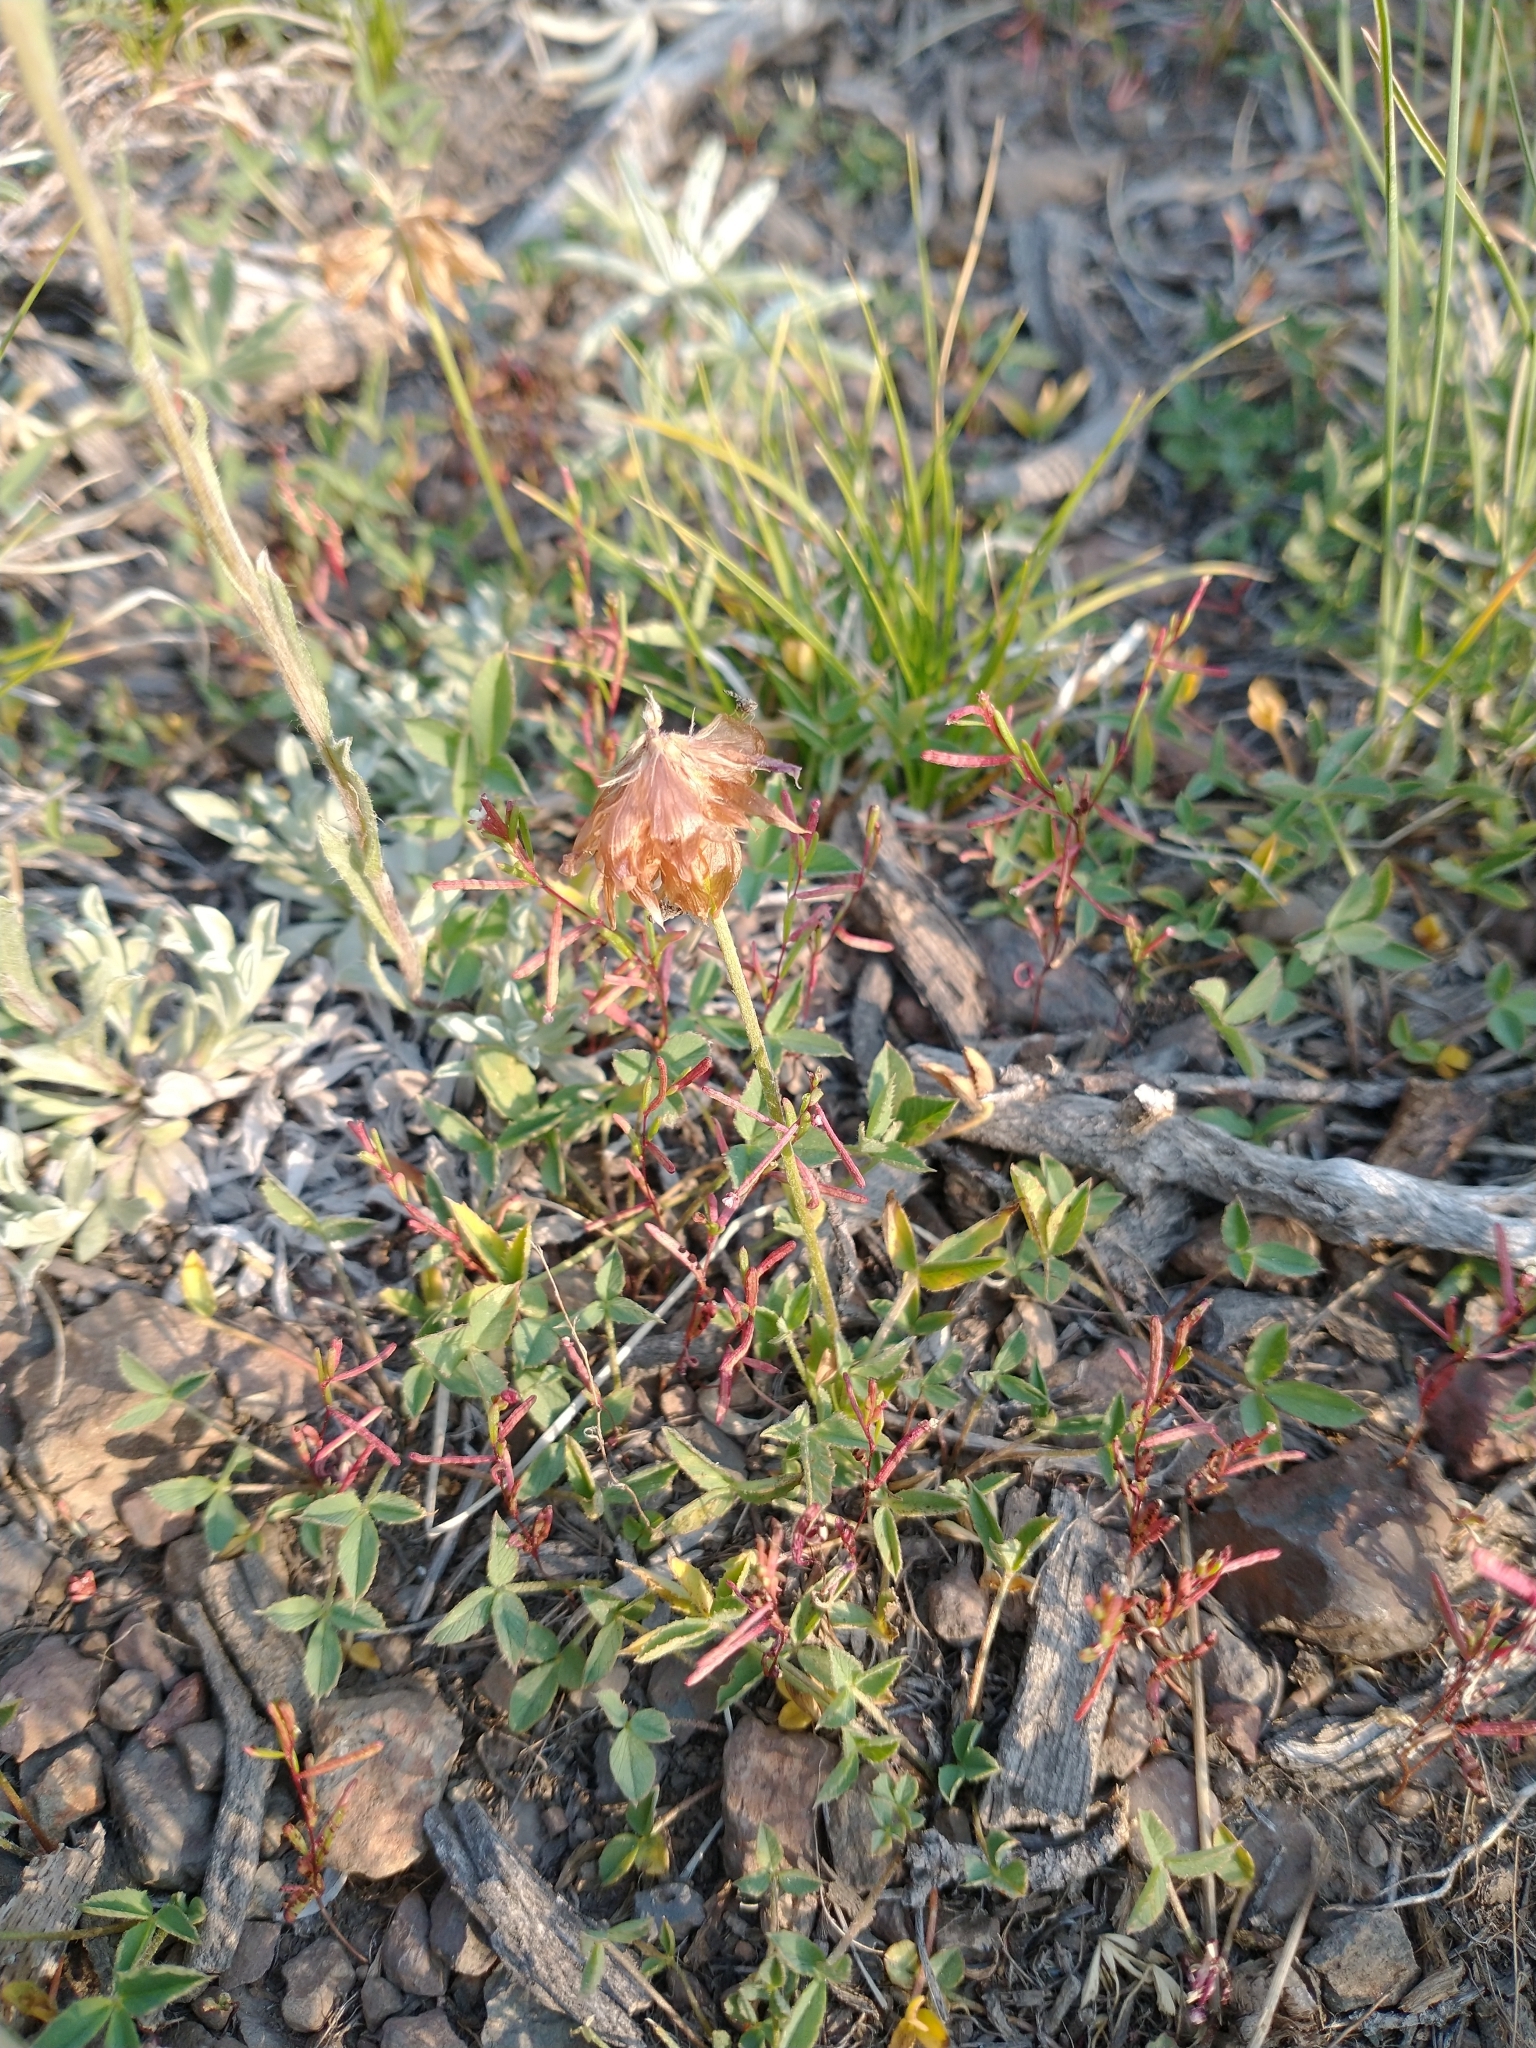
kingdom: Plantae
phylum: Tracheophyta
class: Magnoliopsida
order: Fabales
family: Fabaceae
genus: Trifolium
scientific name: Trifolium productum
